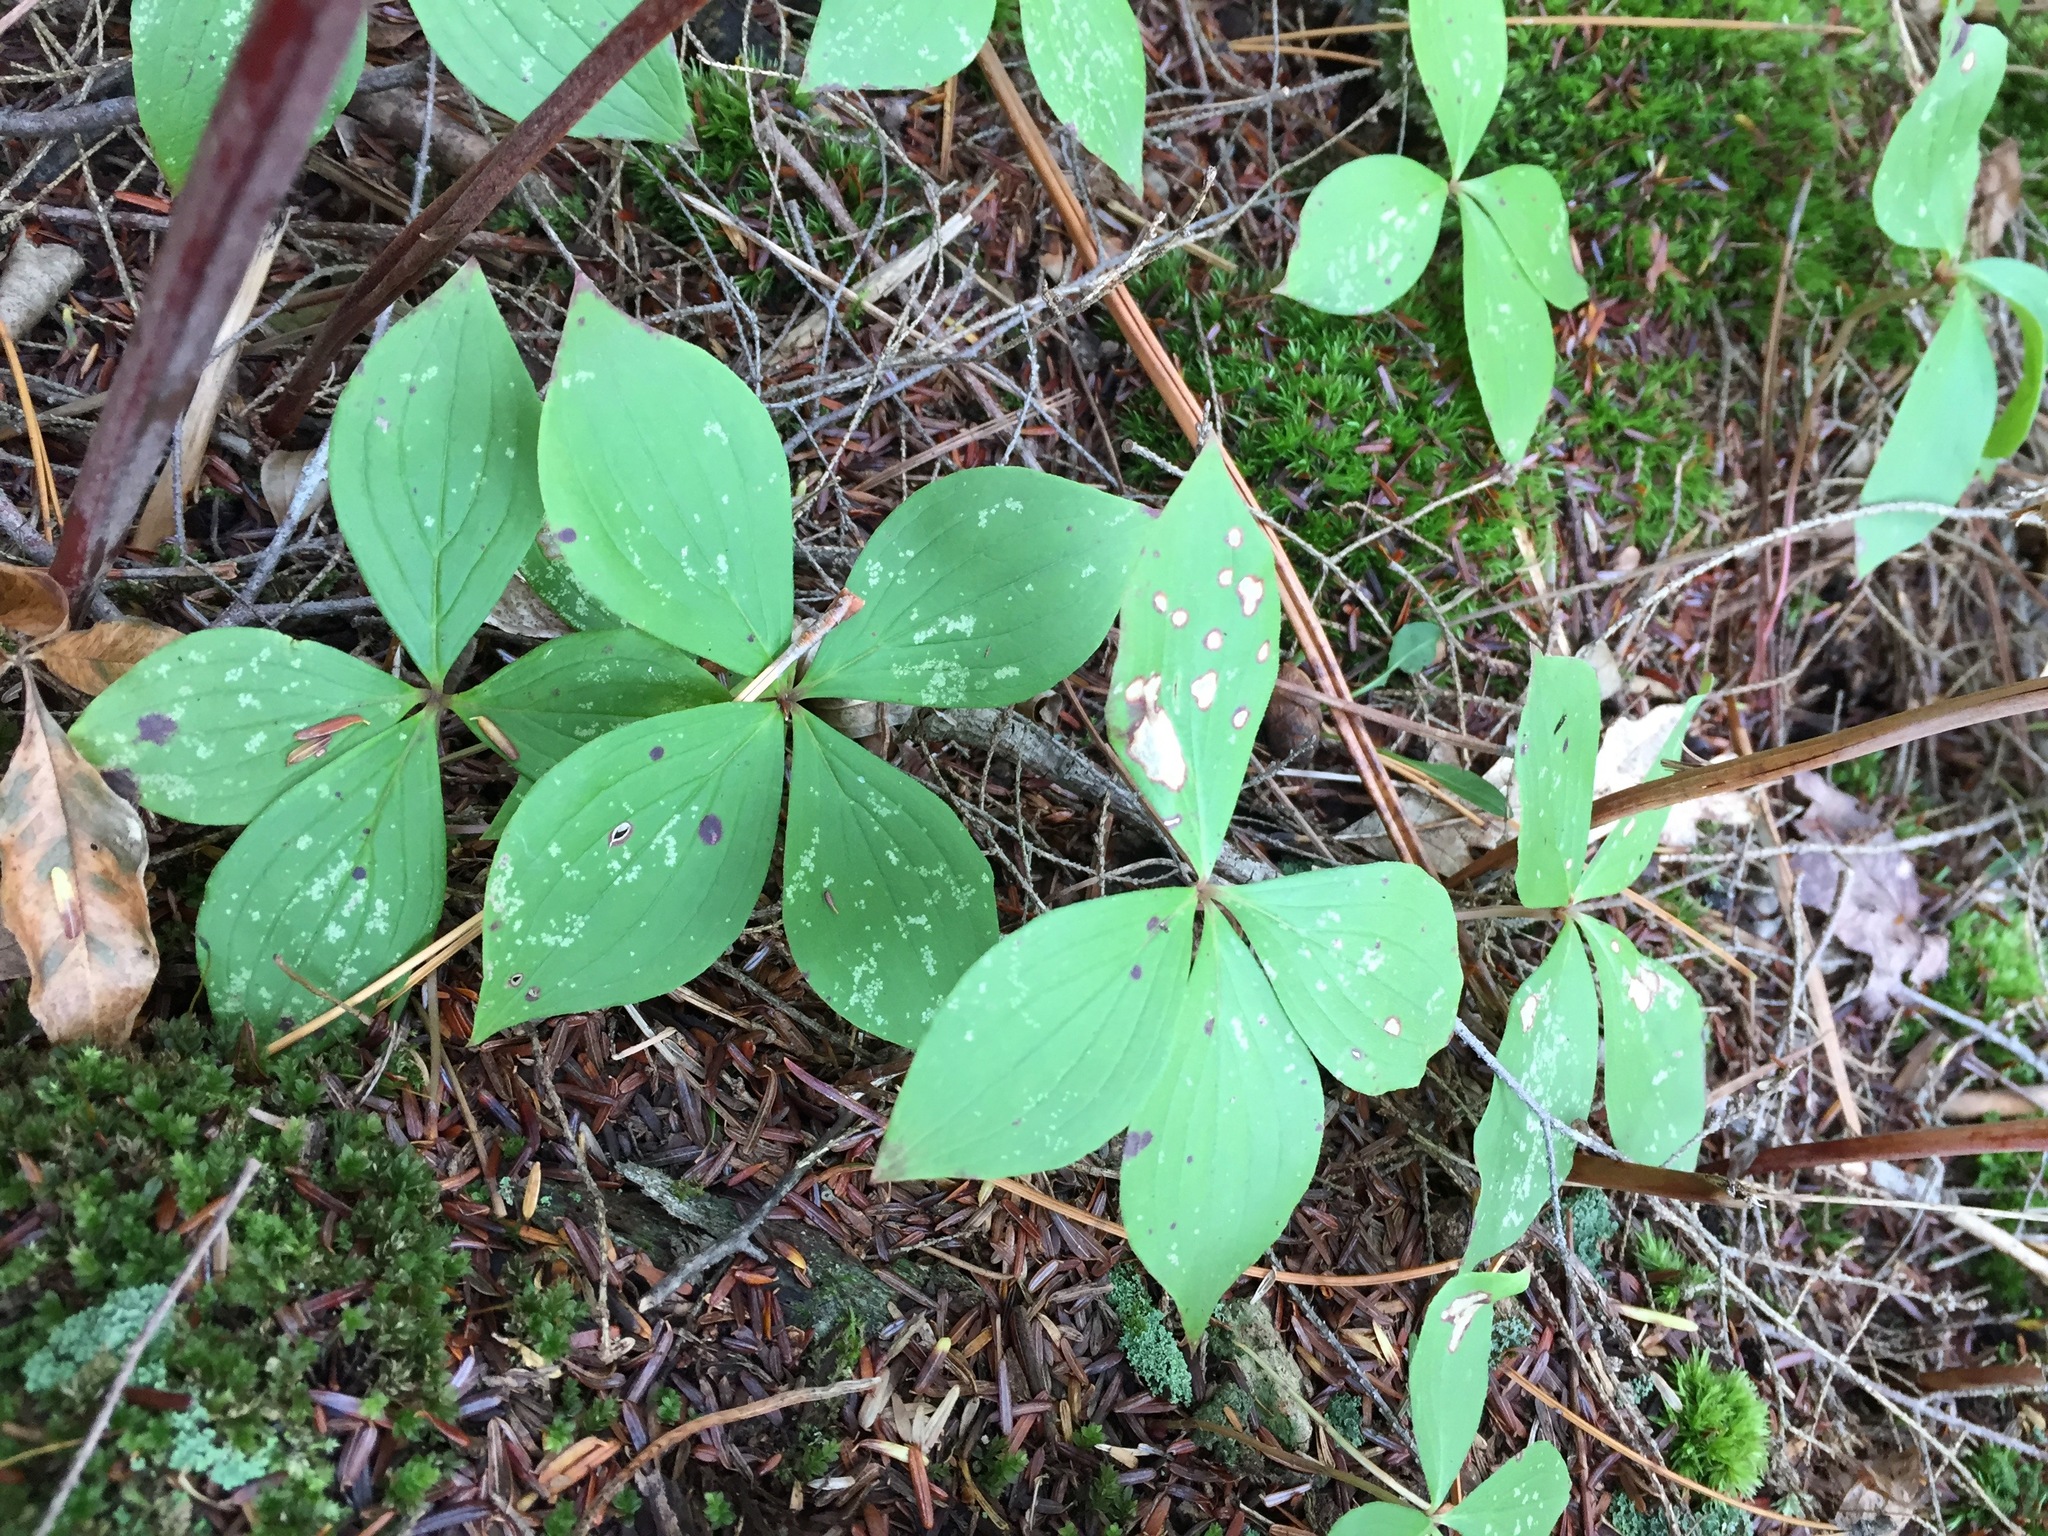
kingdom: Plantae
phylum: Tracheophyta
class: Magnoliopsida
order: Cornales
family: Cornaceae
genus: Cornus
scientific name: Cornus canadensis
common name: Creeping dogwood
